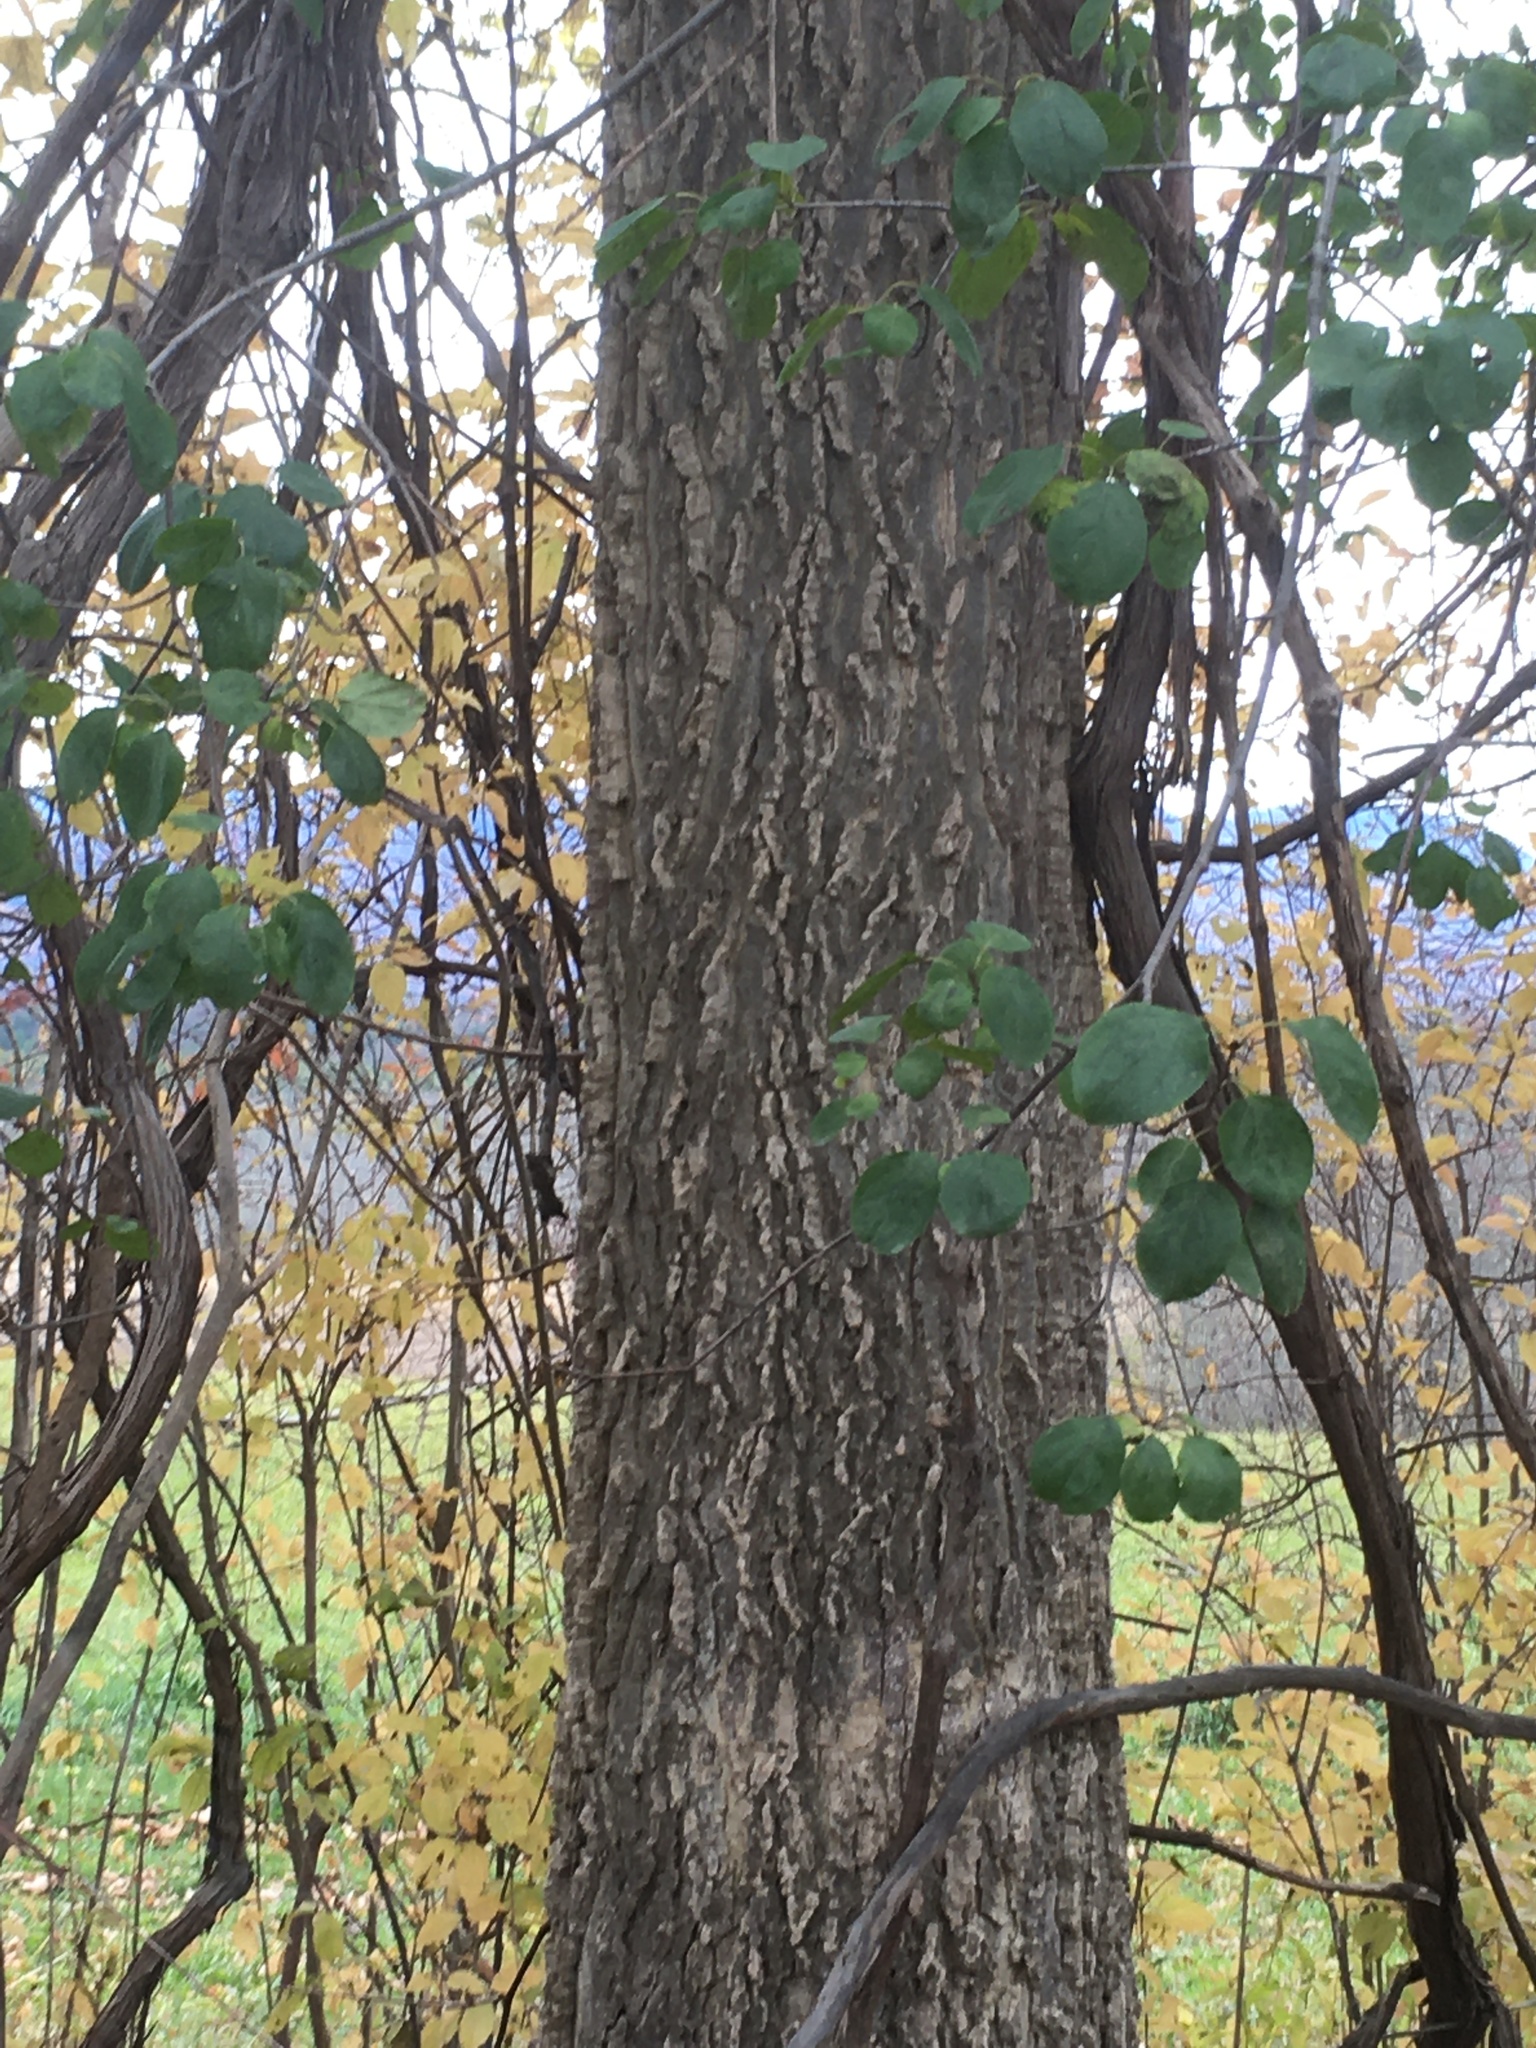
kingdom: Plantae
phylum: Tracheophyta
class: Magnoliopsida
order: Rosales
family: Cannabaceae
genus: Celtis
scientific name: Celtis occidentalis
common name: Common hackberry
